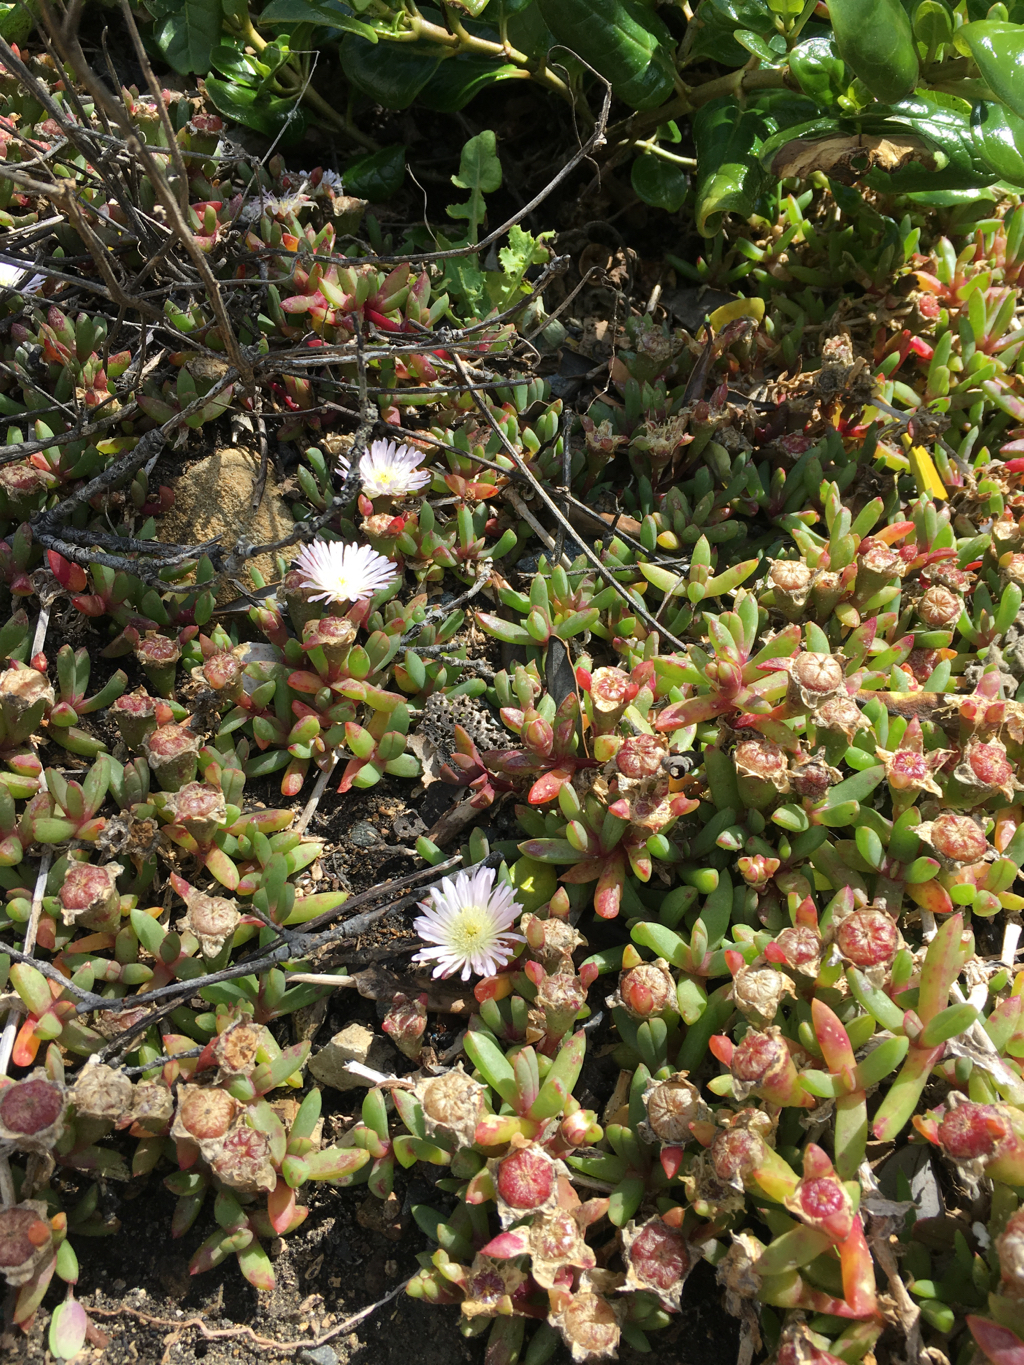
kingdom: Plantae
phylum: Tracheophyta
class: Magnoliopsida
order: Caryophyllales
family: Aizoaceae
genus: Disphyma
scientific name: Disphyma australe
